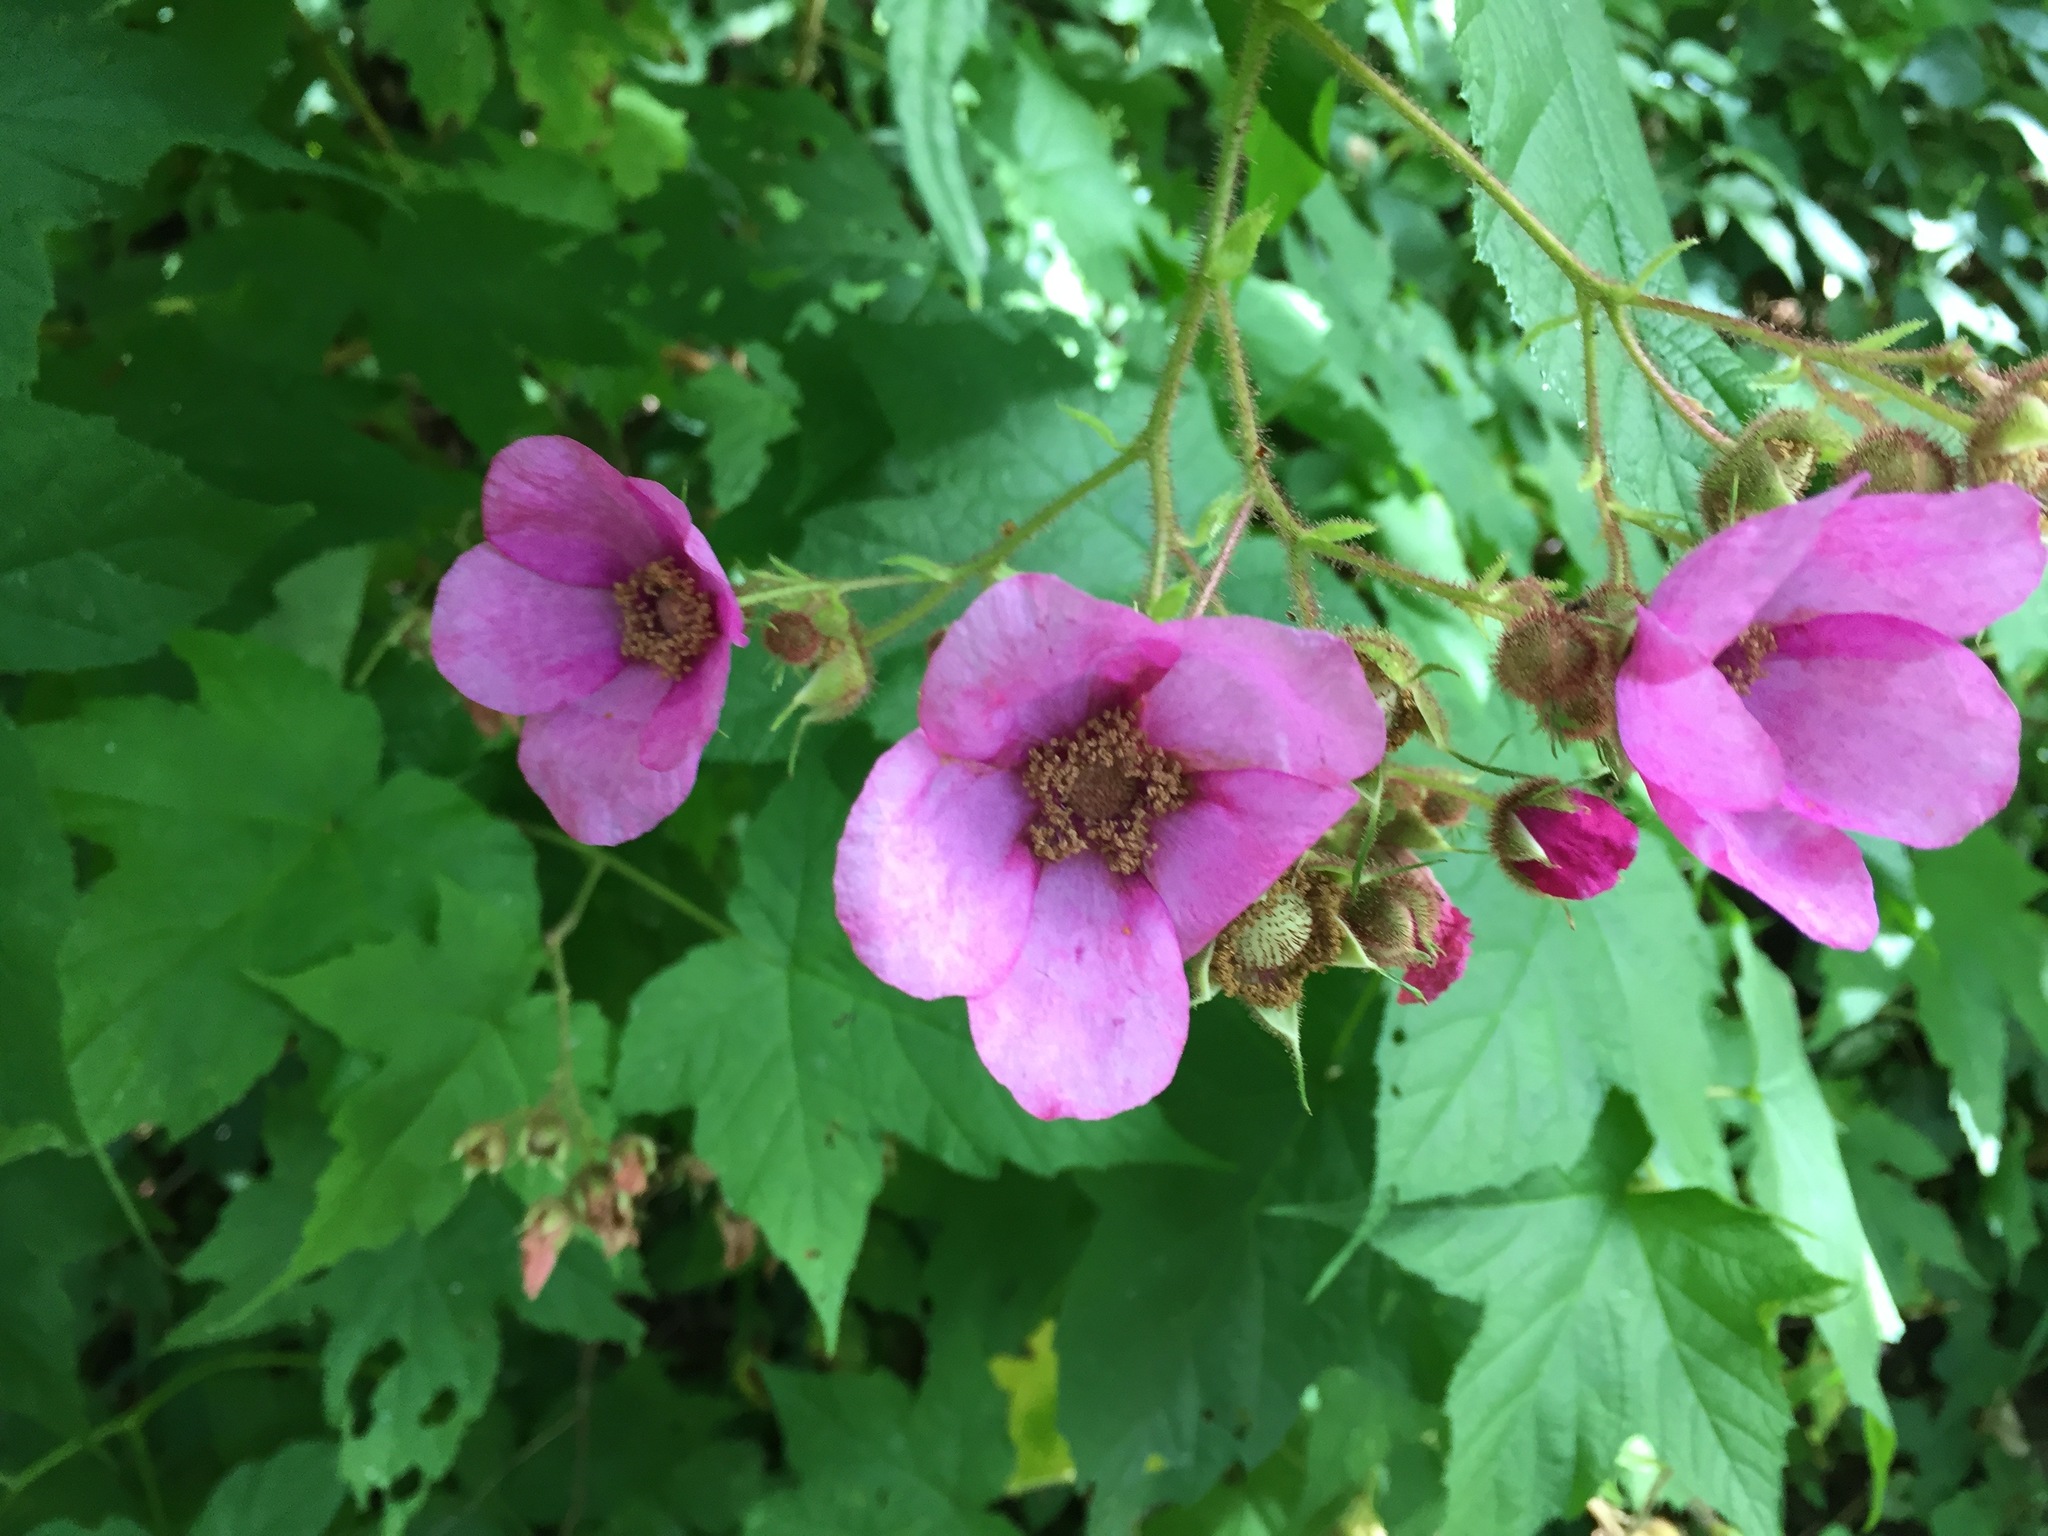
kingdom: Plantae
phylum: Tracheophyta
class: Magnoliopsida
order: Rosales
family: Rosaceae
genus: Rubus
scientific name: Rubus odoratus
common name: Purple-flowered raspberry
